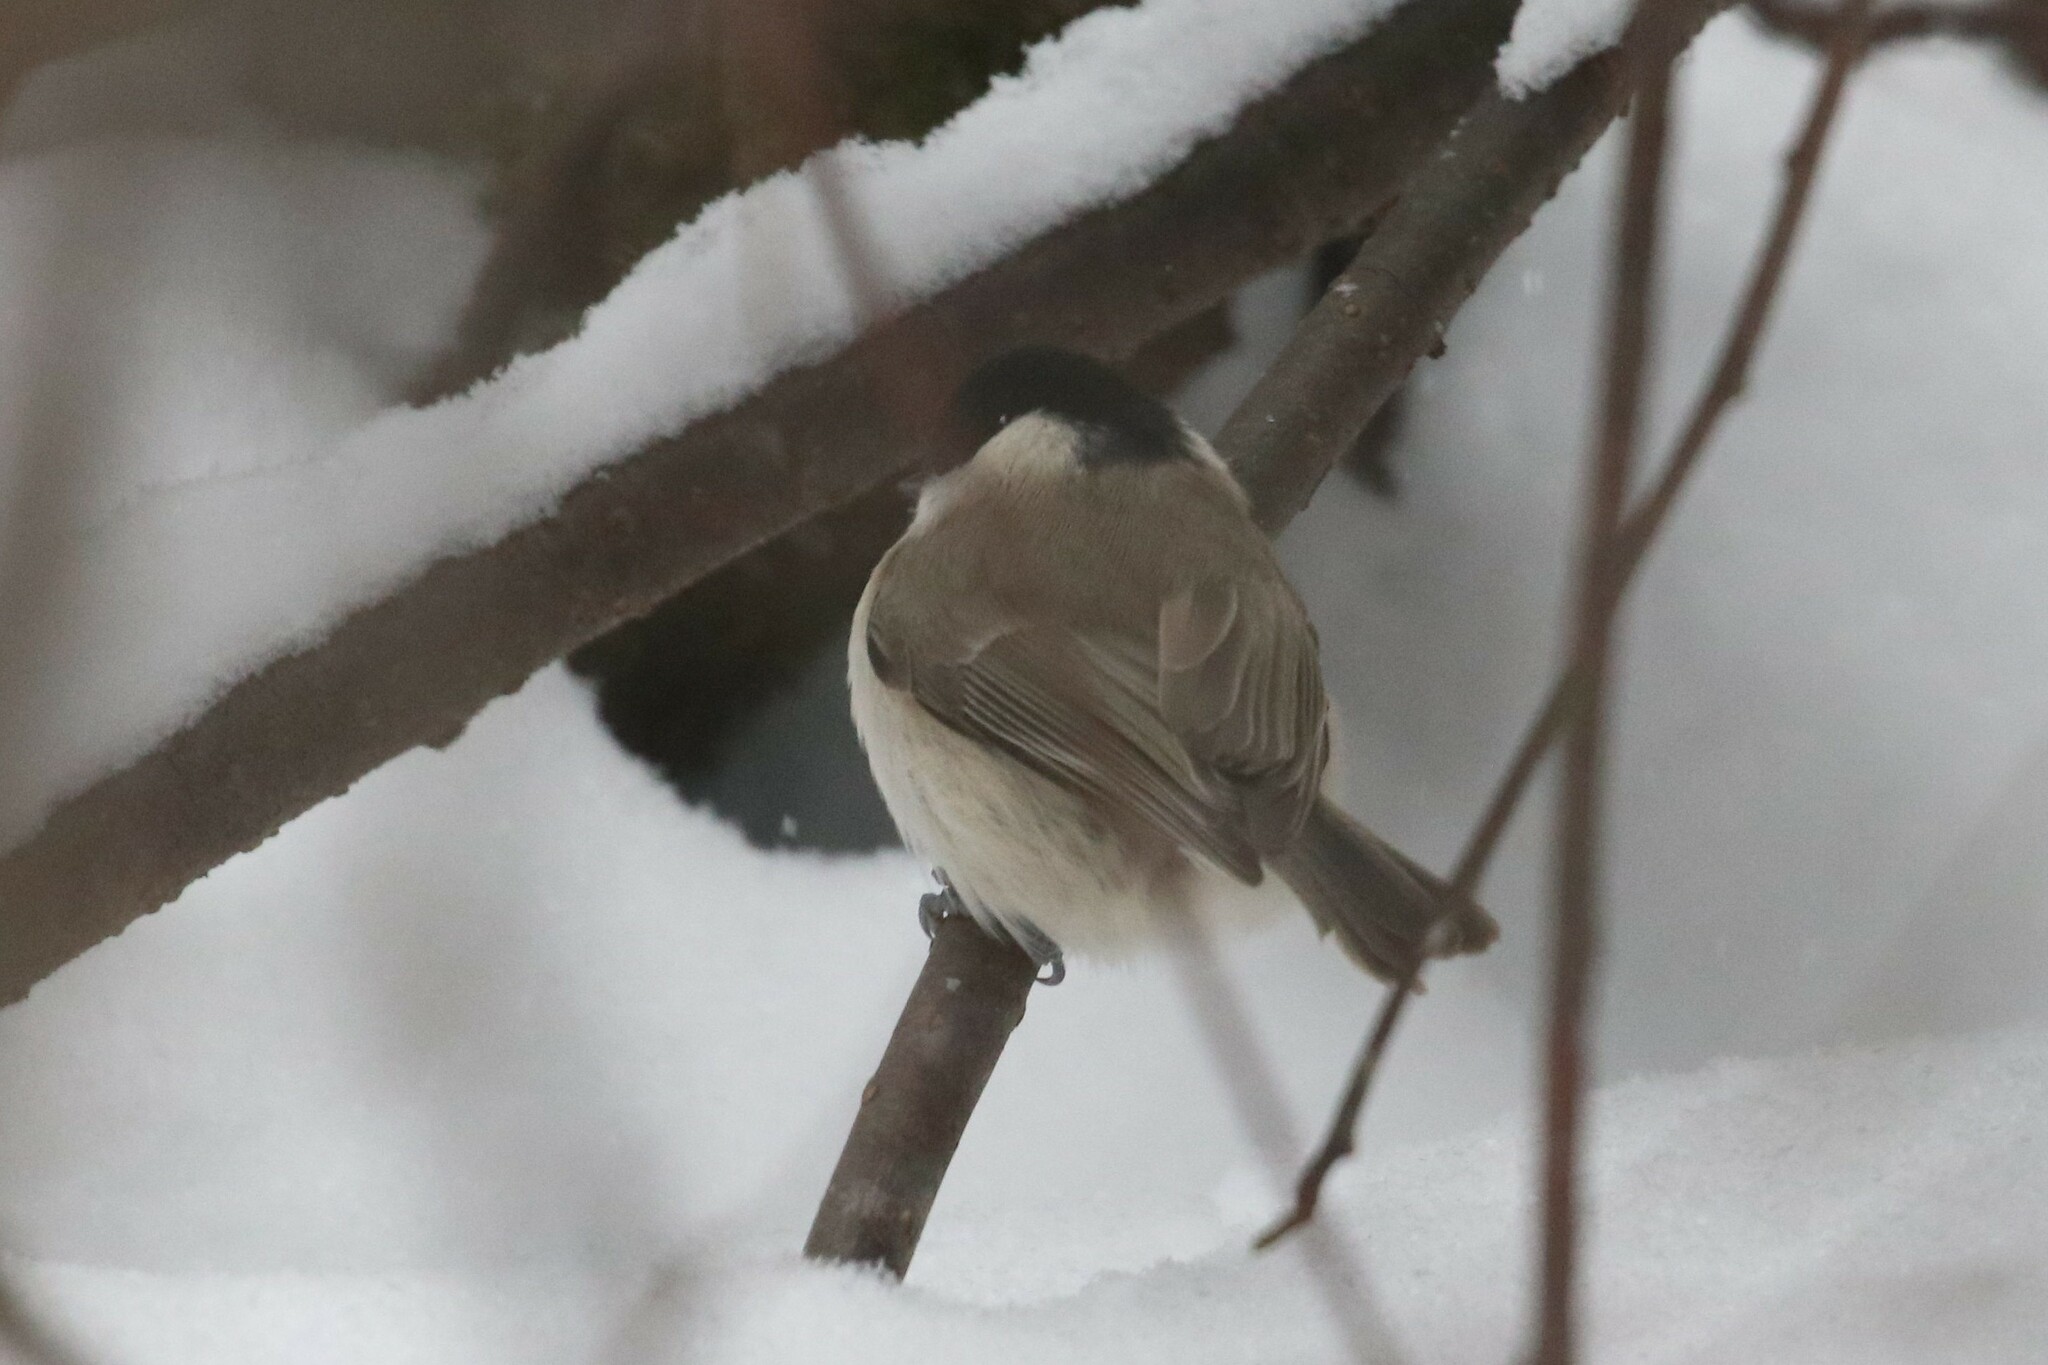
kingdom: Animalia
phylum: Chordata
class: Aves
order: Passeriformes
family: Paridae
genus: Poecile
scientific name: Poecile palustris
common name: Marsh tit
